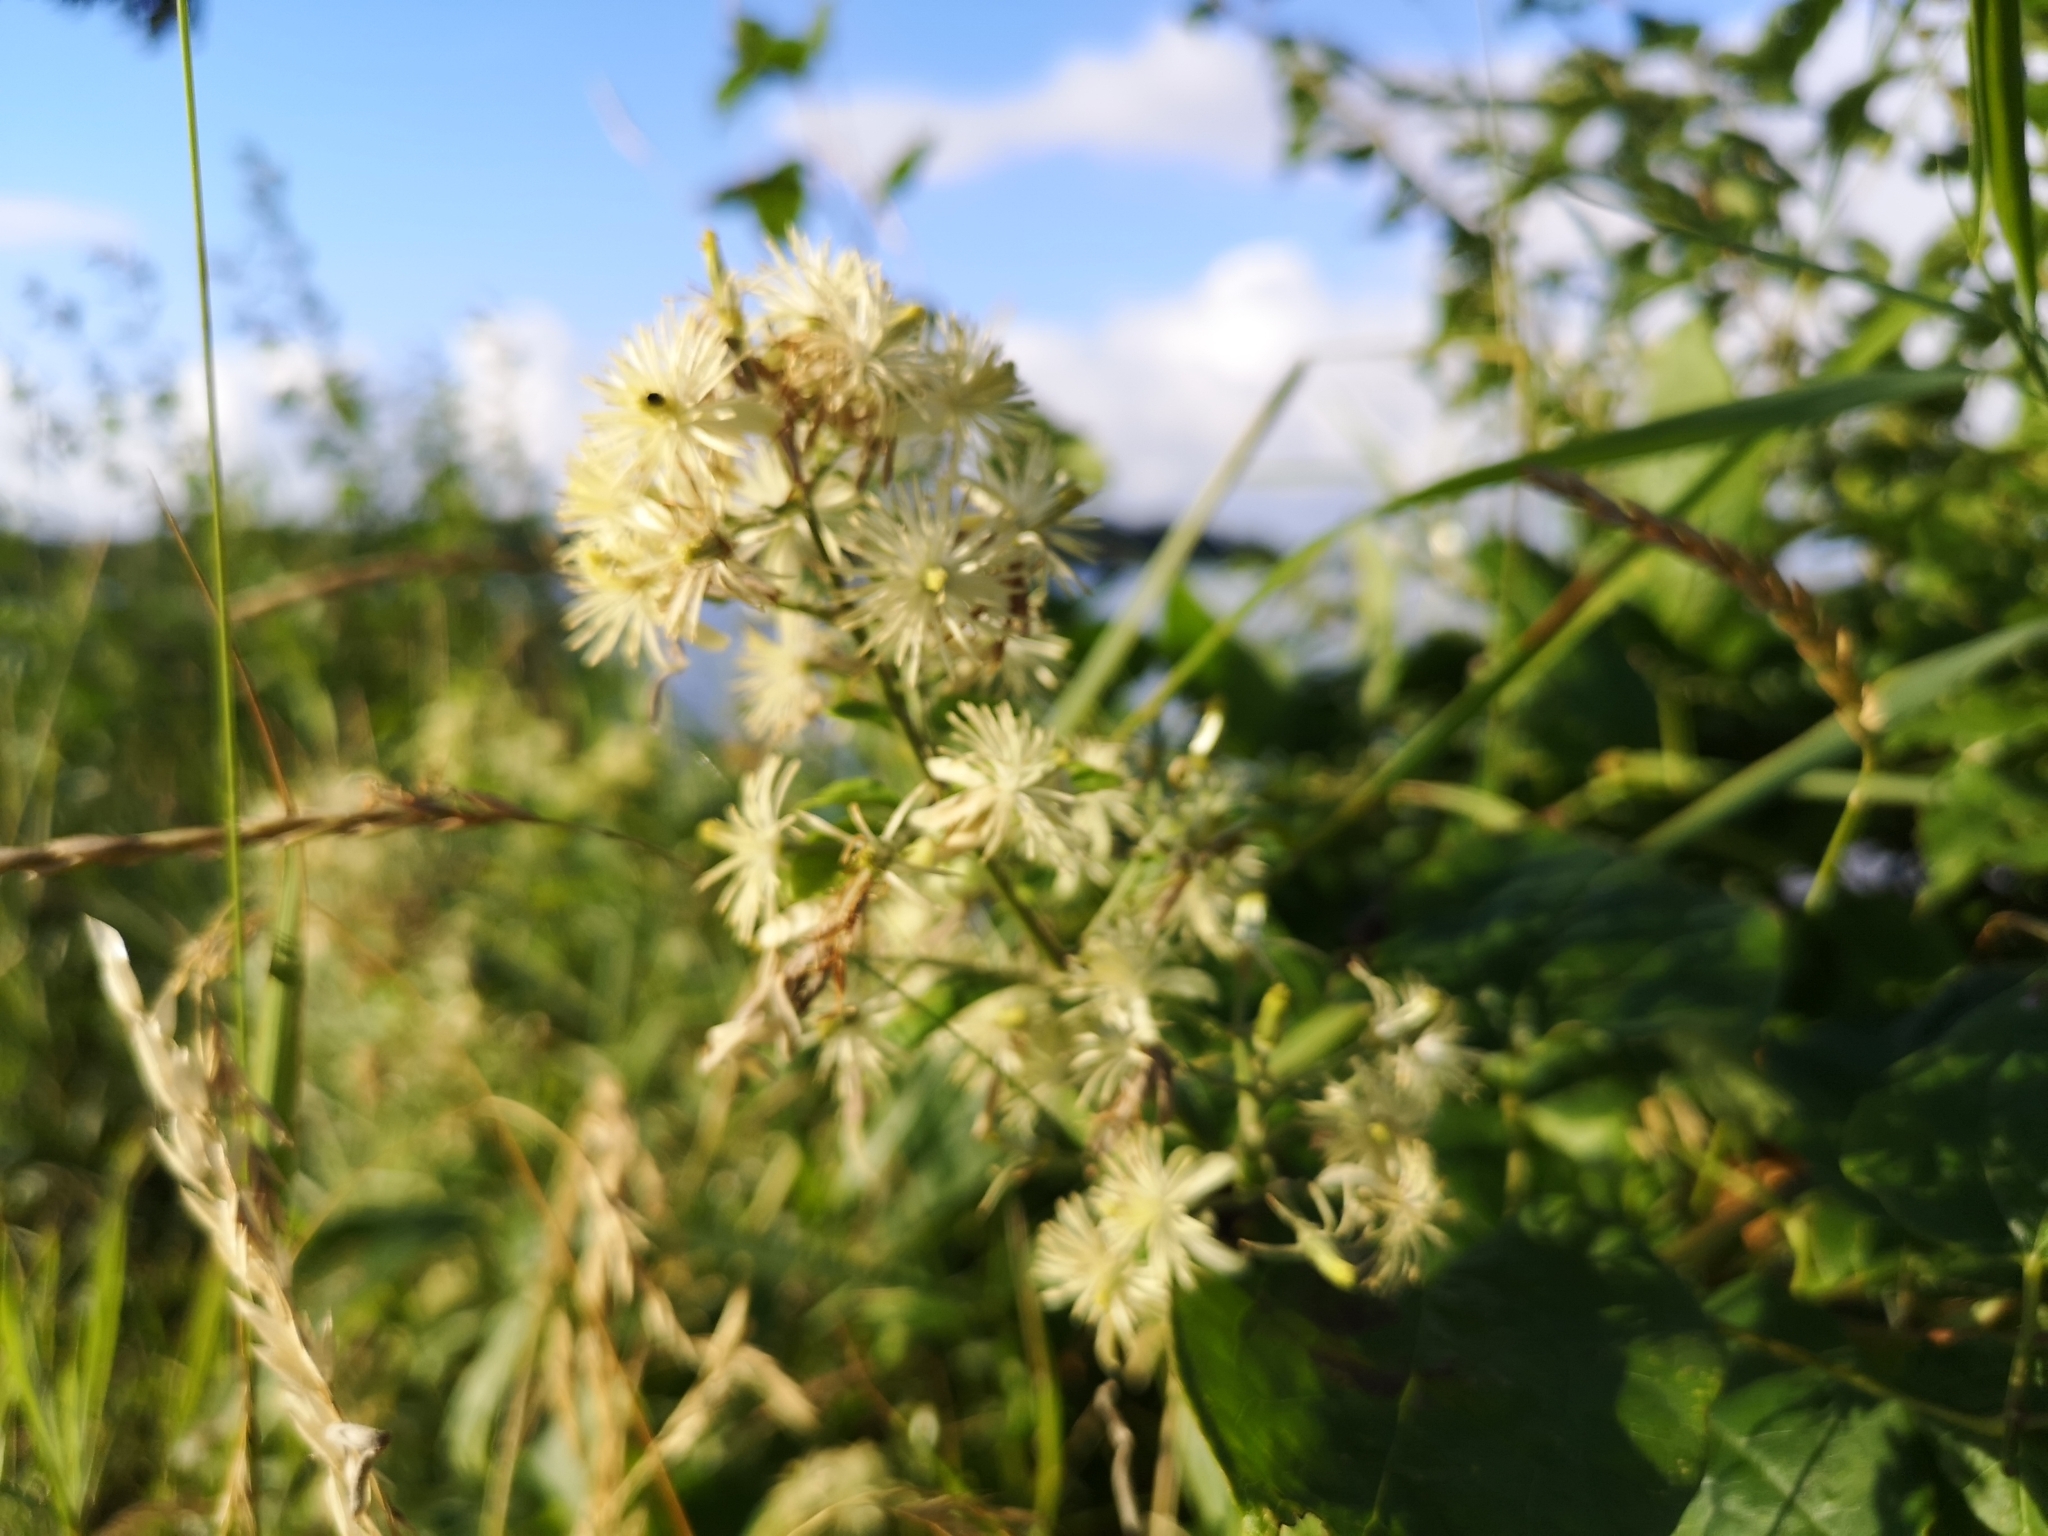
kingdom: Plantae
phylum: Tracheophyta
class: Magnoliopsida
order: Ranunculales
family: Ranunculaceae
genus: Clematis
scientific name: Clematis vitalba
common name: Evergreen clematis
